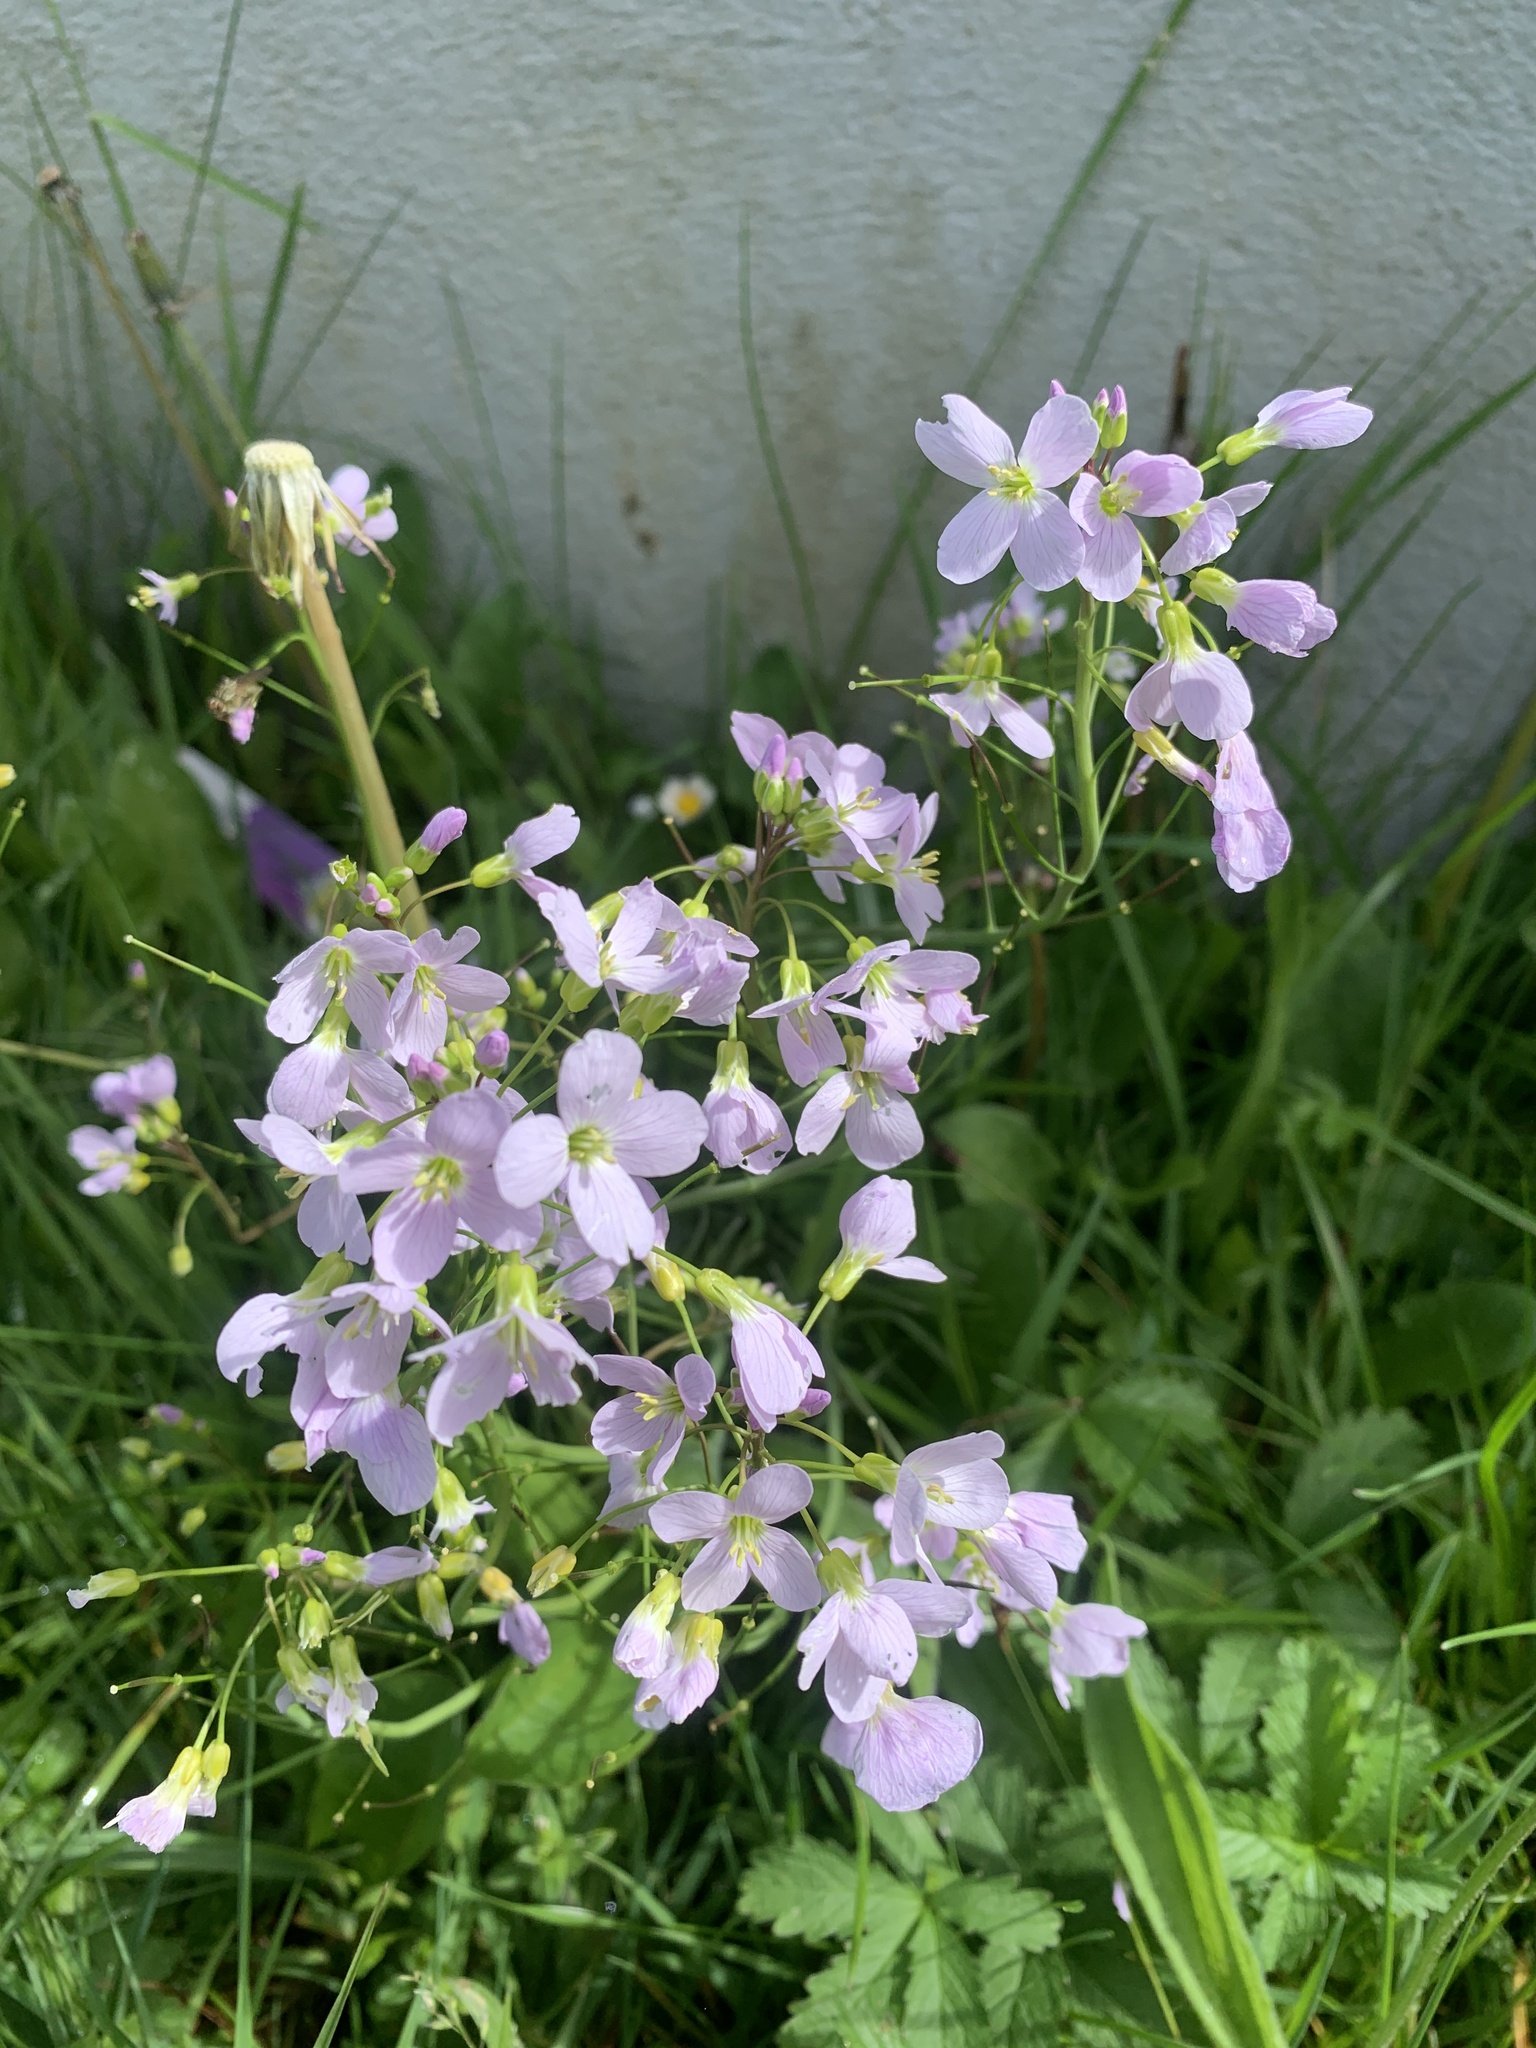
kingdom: Plantae
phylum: Tracheophyta
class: Magnoliopsida
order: Brassicales
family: Brassicaceae
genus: Cardamine
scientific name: Cardamine pratensis
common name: Cuckoo flower
